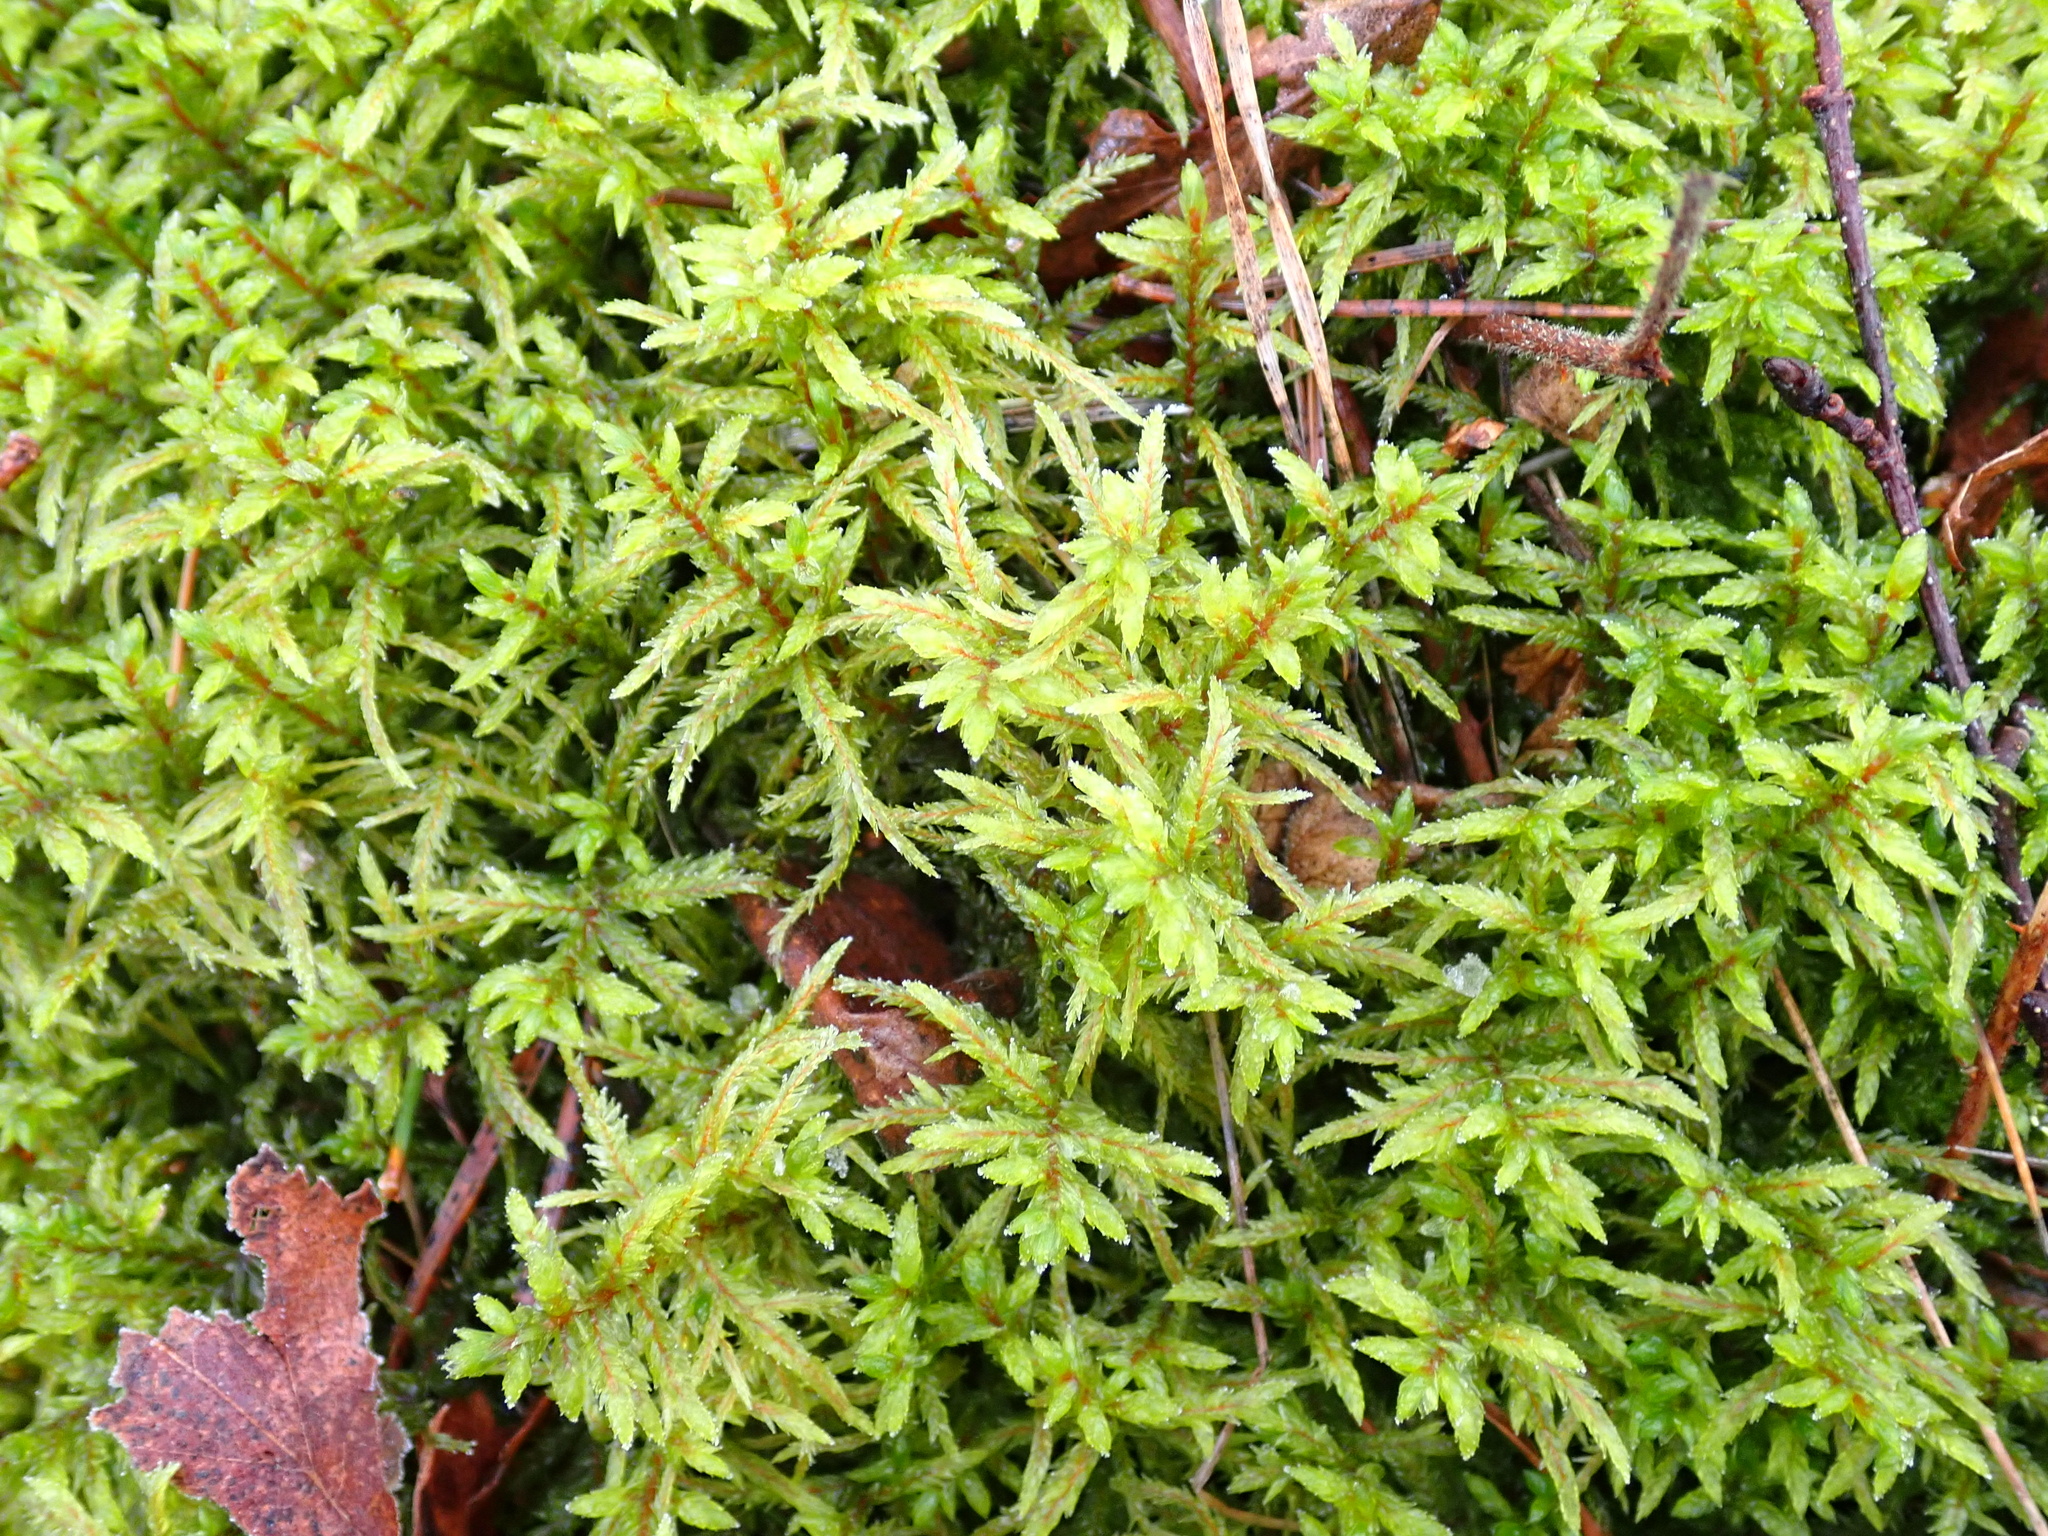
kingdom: Plantae
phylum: Bryophyta
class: Bryopsida
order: Hypnales
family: Hylocomiaceae
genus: Pleurozium
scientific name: Pleurozium schreberi
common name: Red-stemmed feather moss
